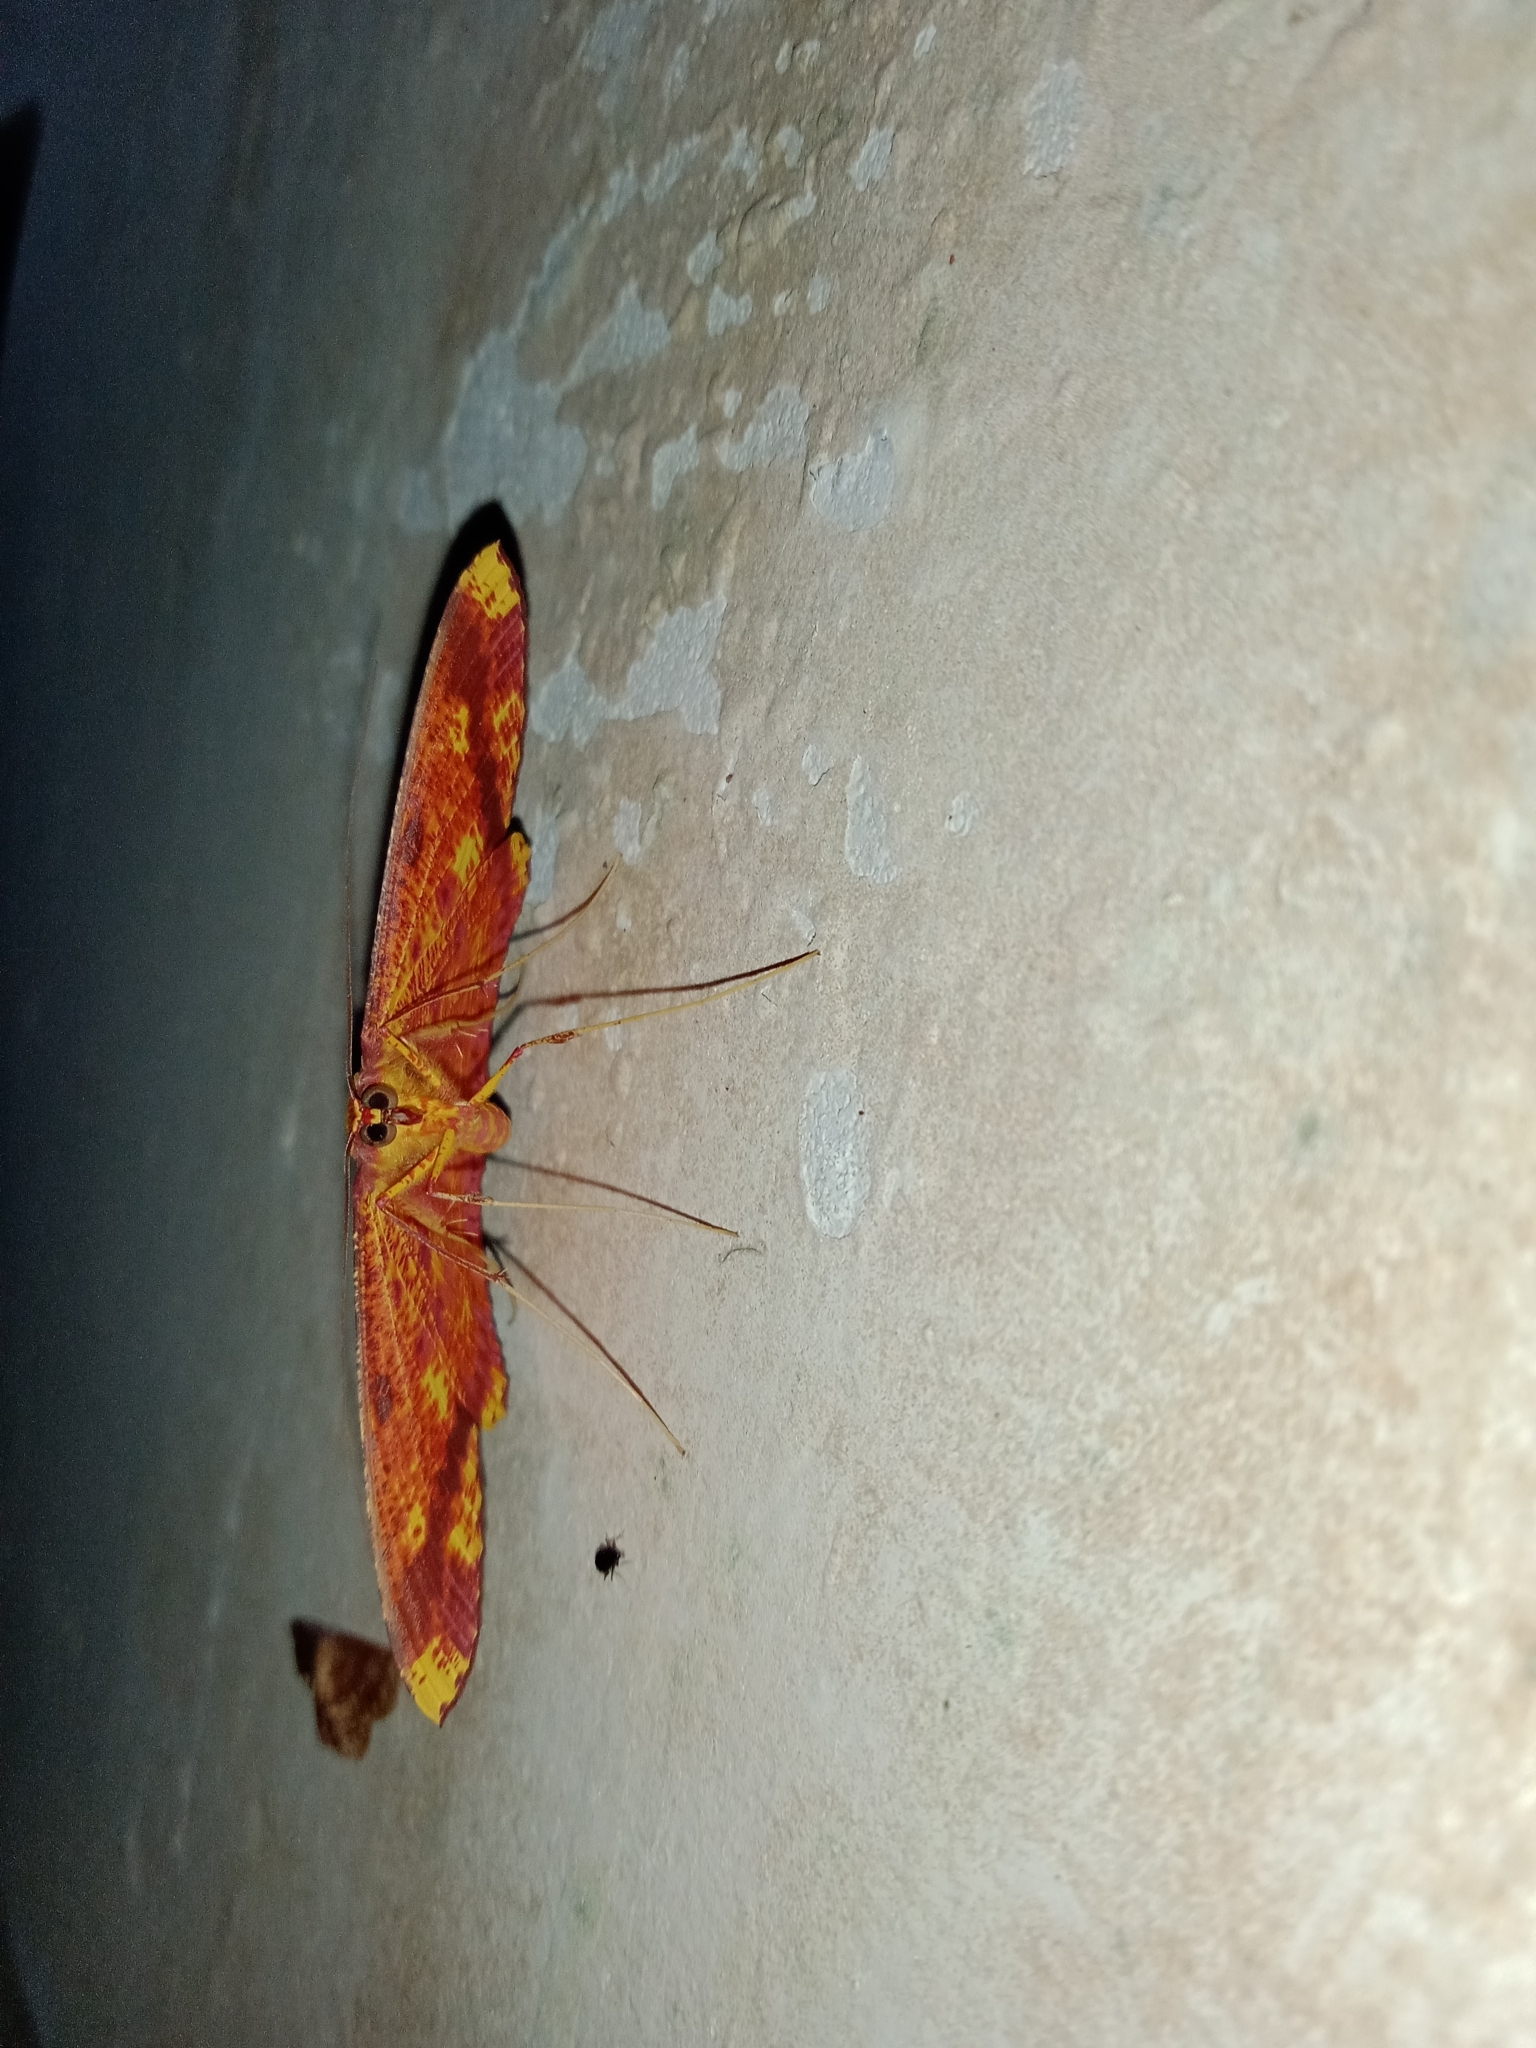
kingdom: Animalia
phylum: Arthropoda
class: Insecta
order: Lepidoptera
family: Geometridae
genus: Eumelea
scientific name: Eumelea ludovicata
